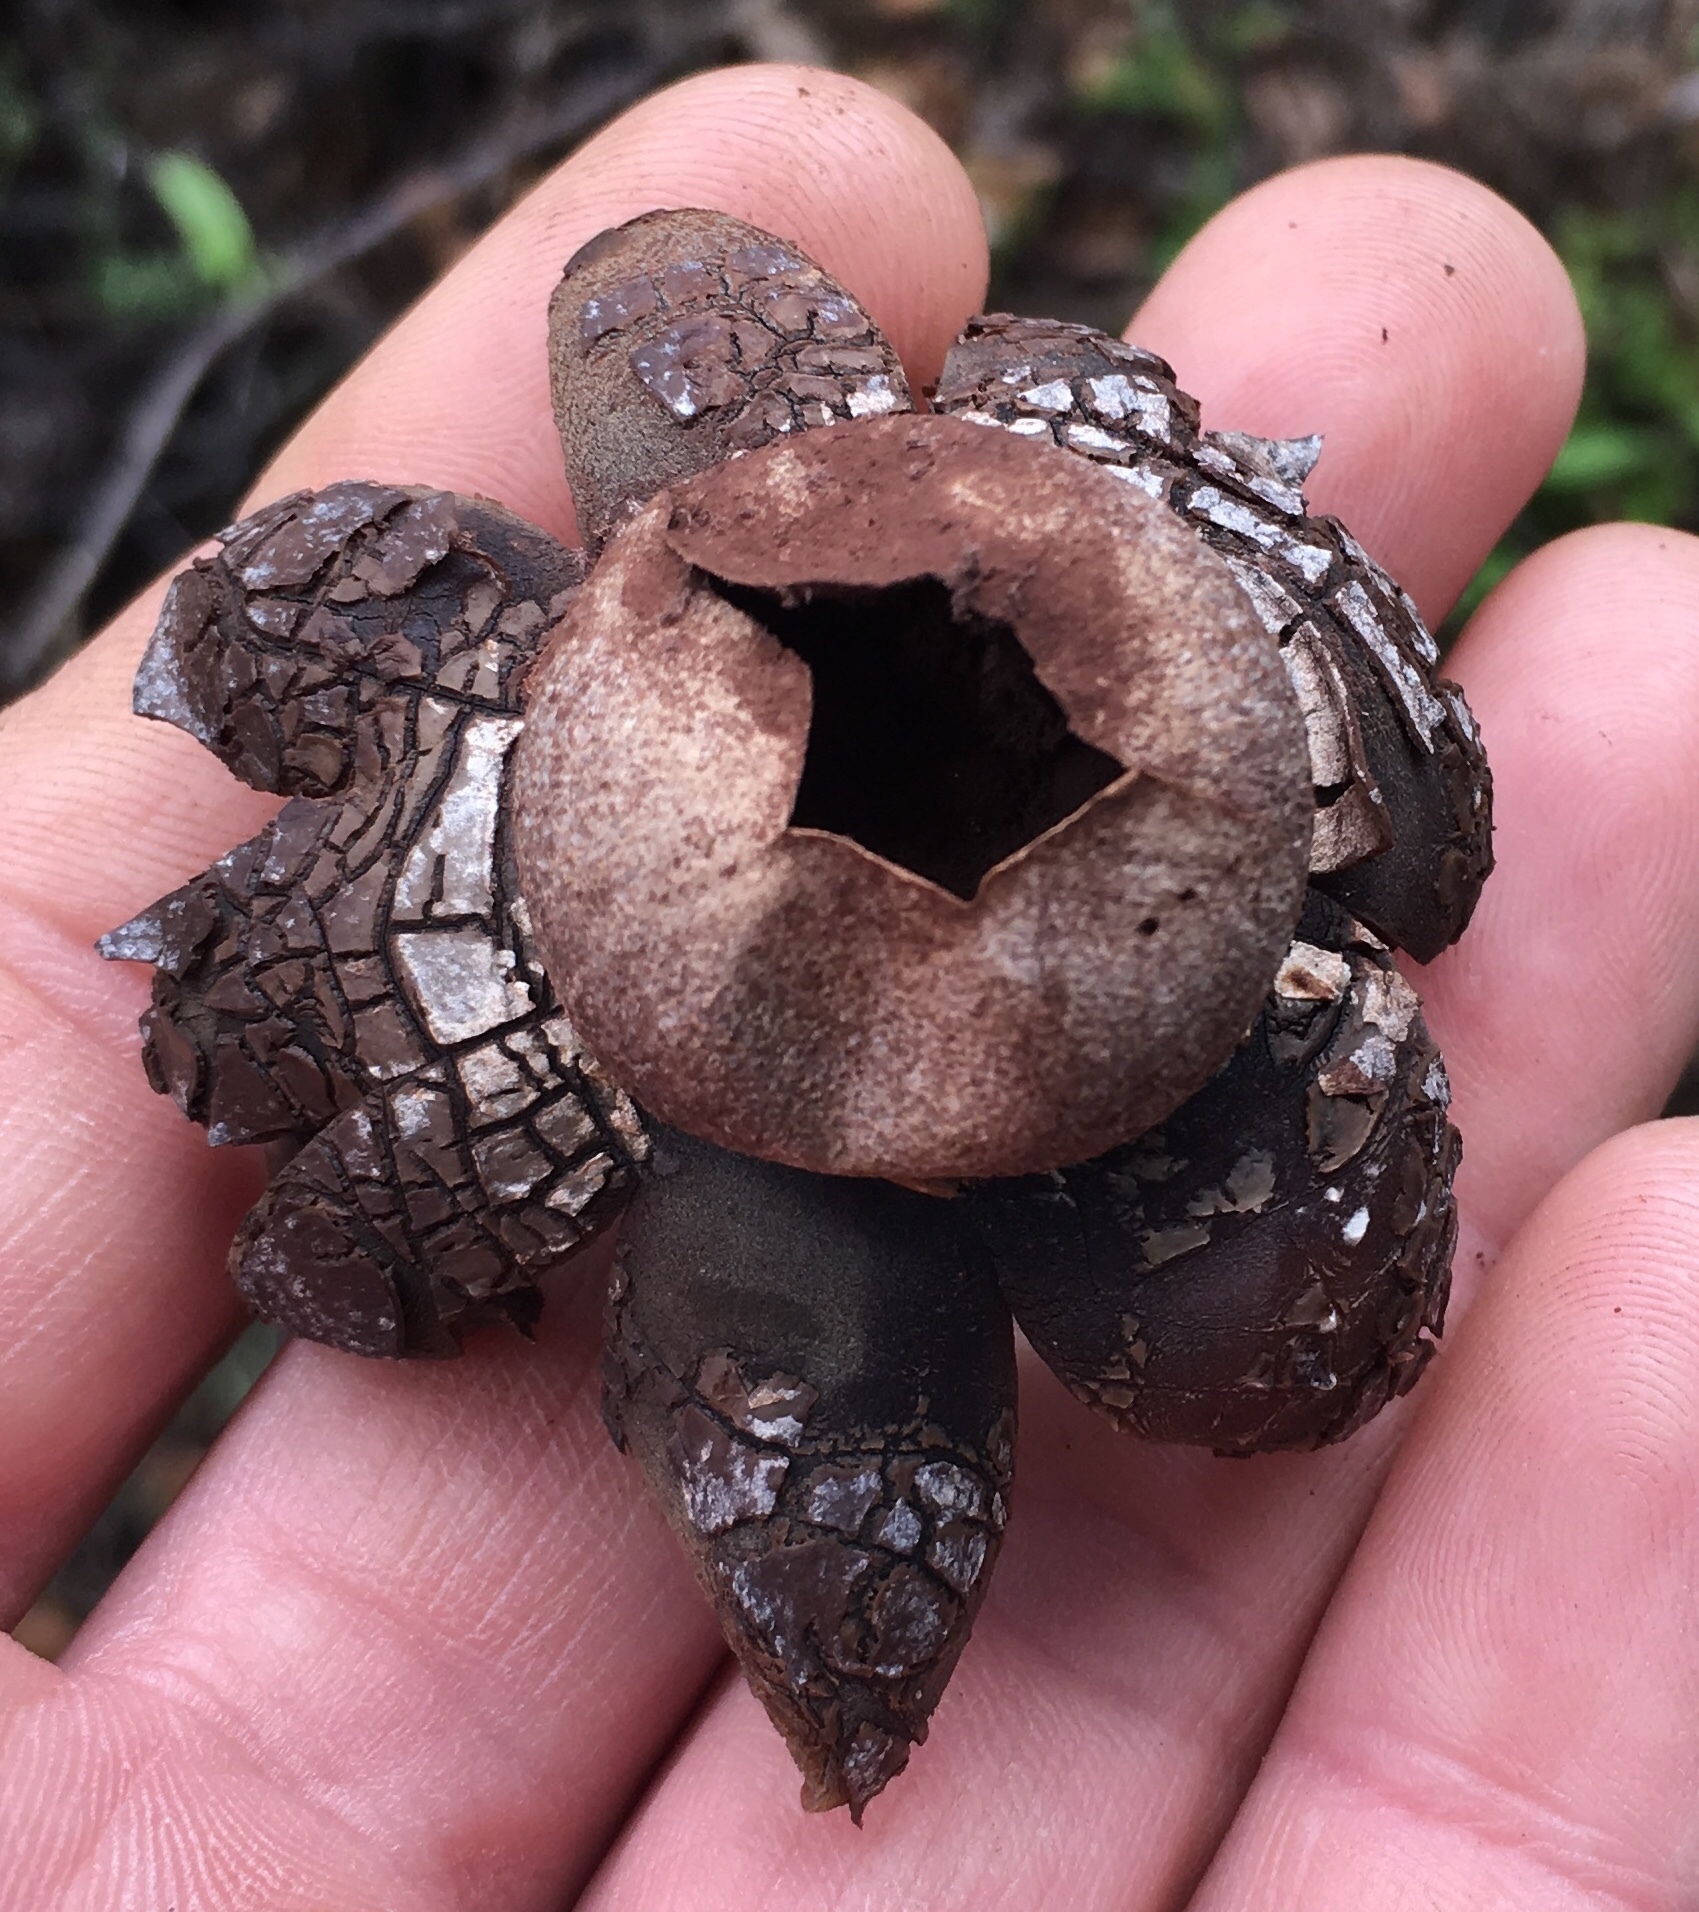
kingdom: Fungi
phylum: Basidiomycota
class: Agaricomycetes
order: Boletales
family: Diplocystidiaceae
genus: Astraeus
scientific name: Astraeus hygrometricus
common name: Barometer earthstar
